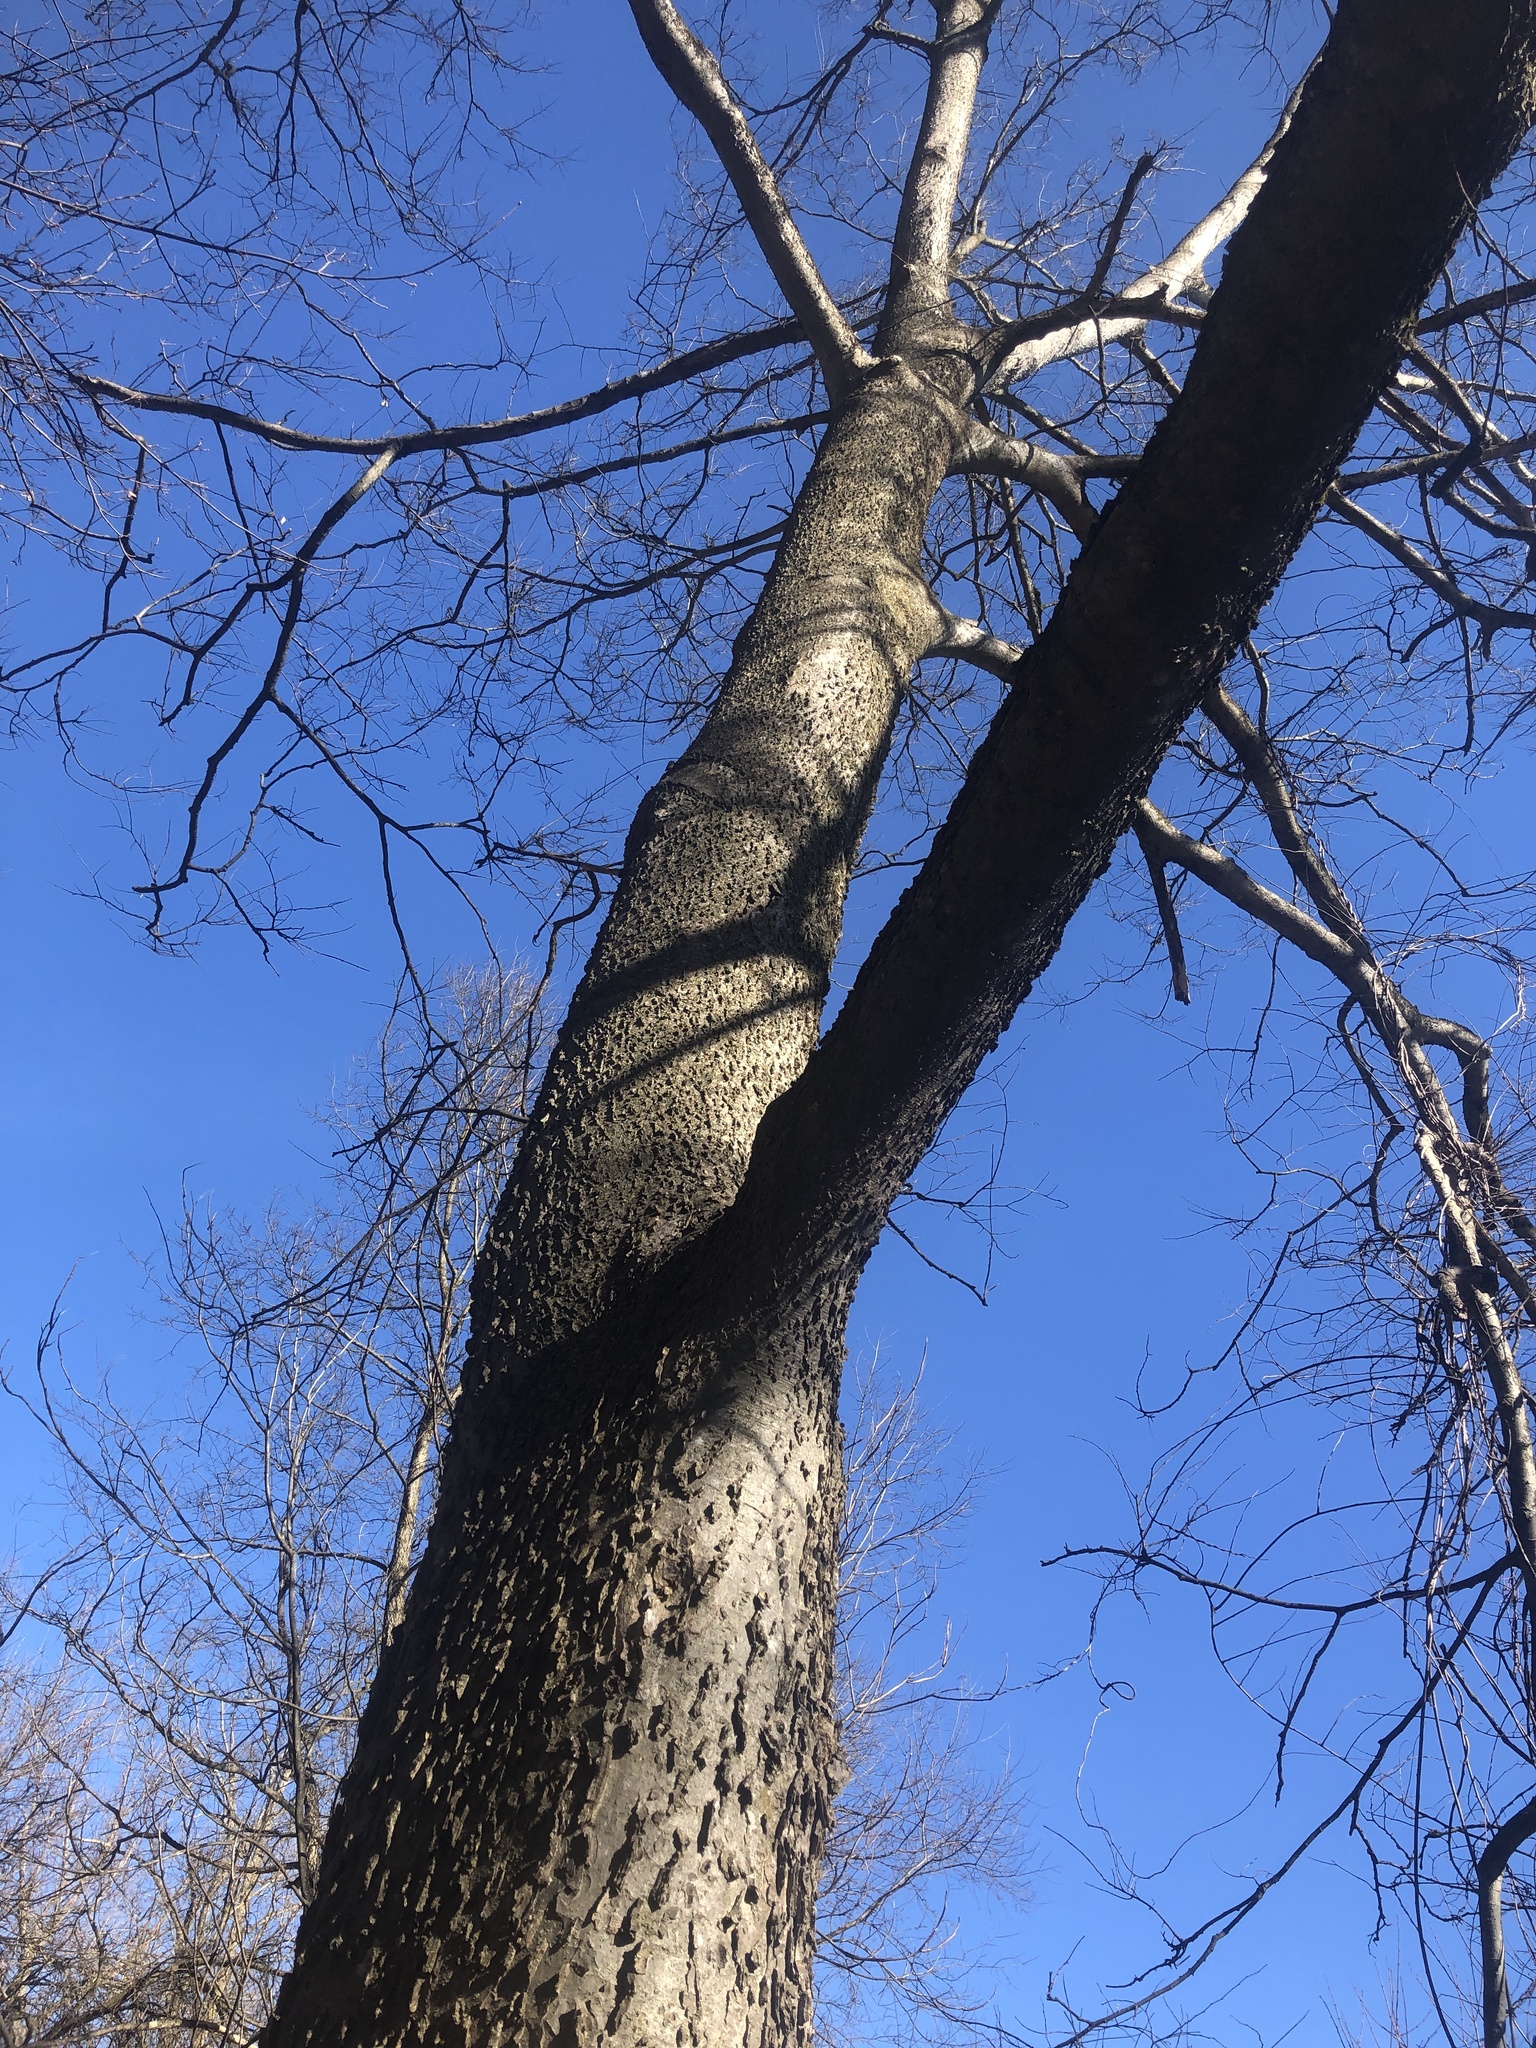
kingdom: Plantae
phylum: Tracheophyta
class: Magnoliopsida
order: Rosales
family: Cannabaceae
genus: Celtis
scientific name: Celtis occidentalis
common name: Common hackberry
